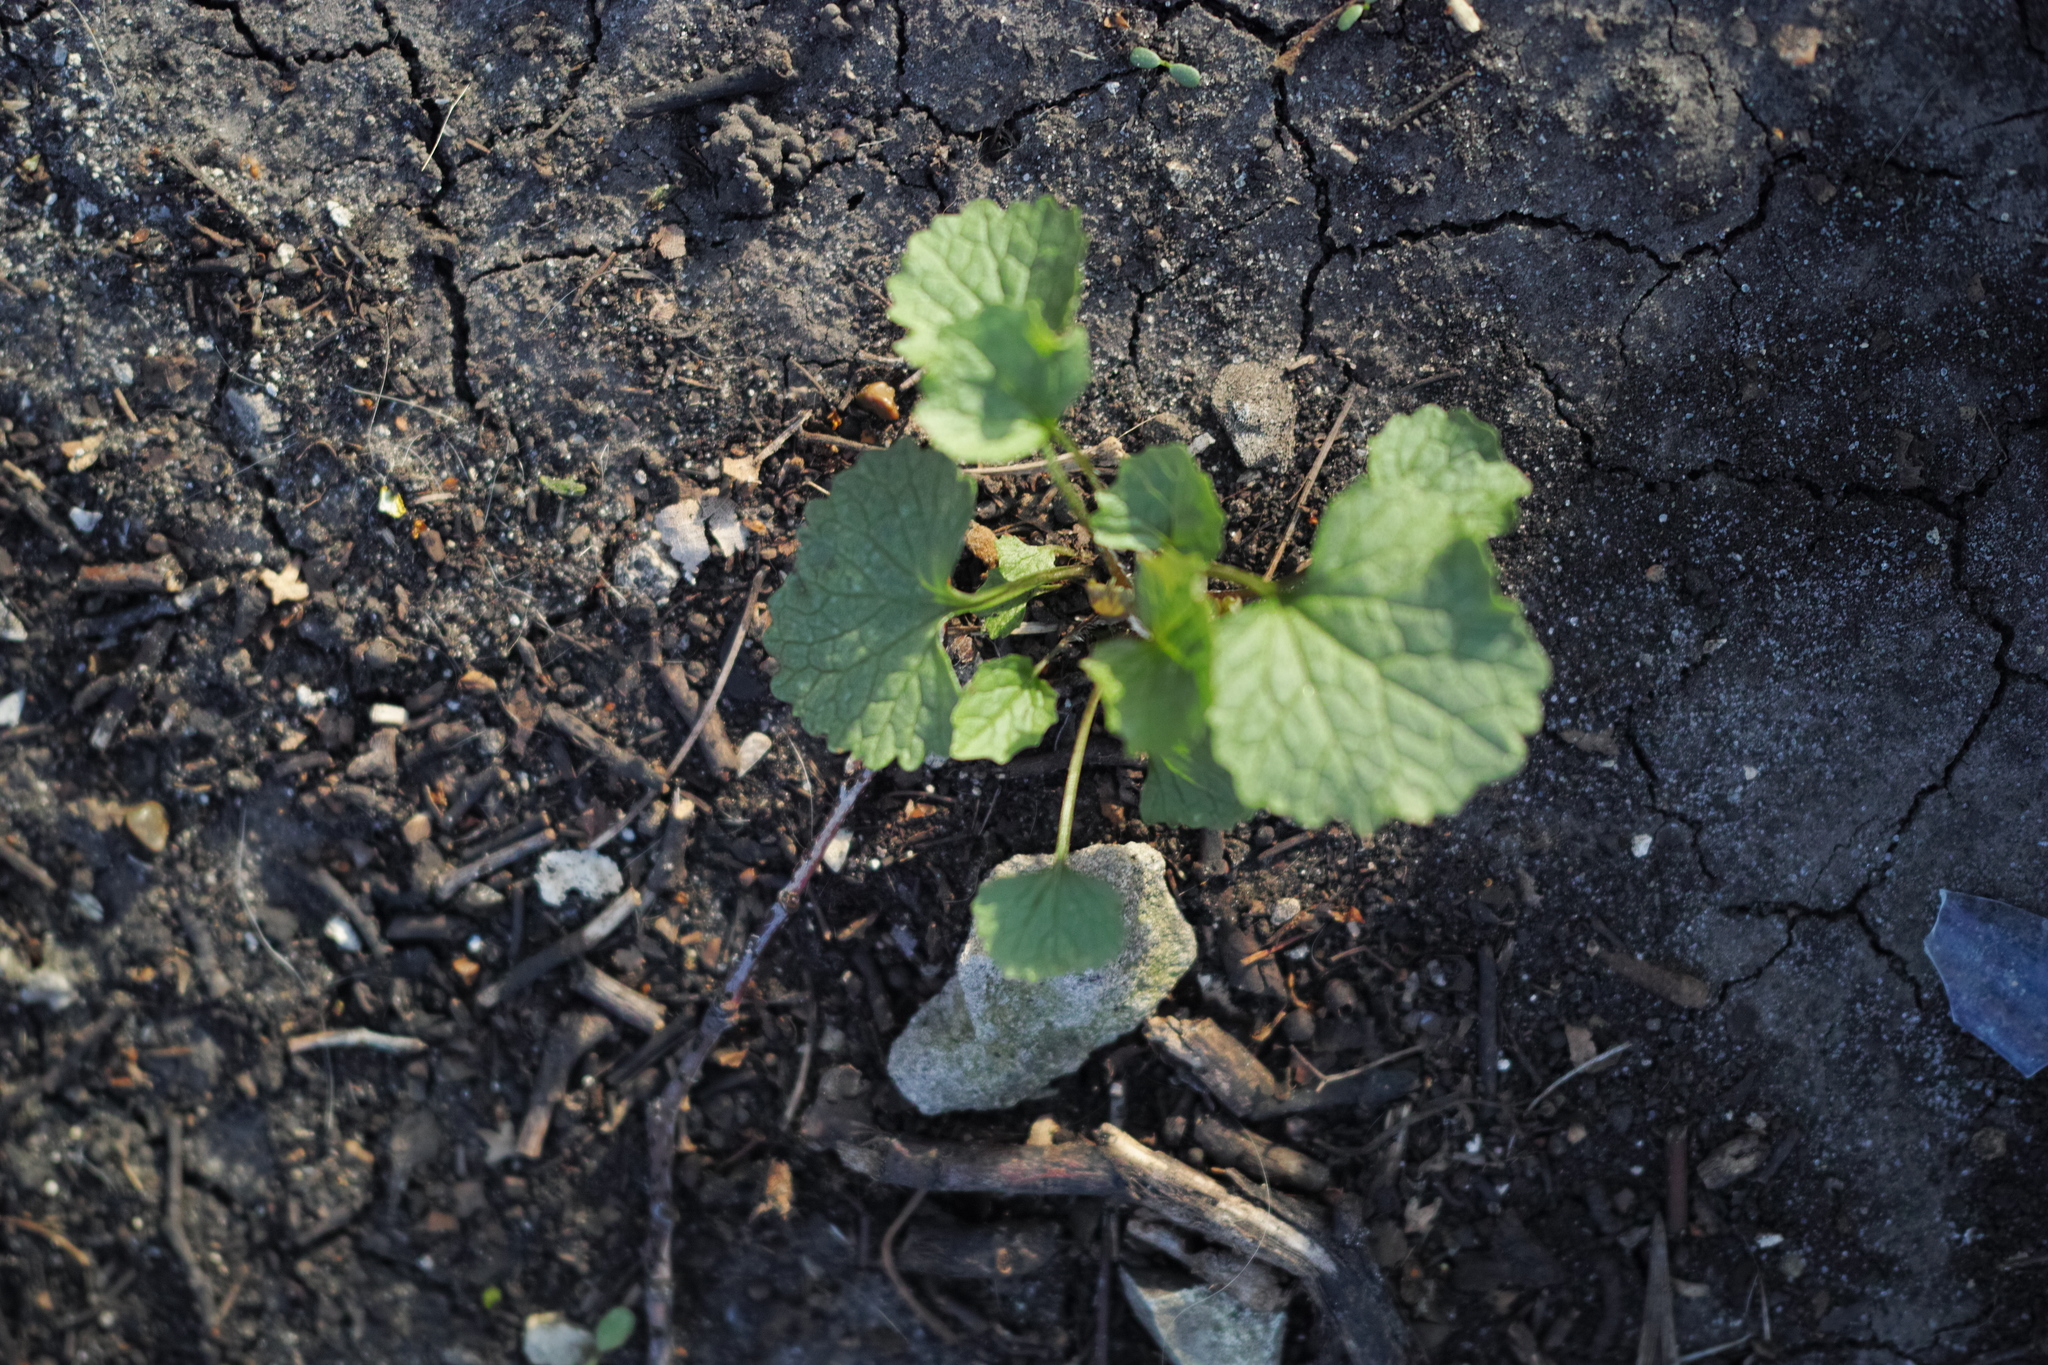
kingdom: Plantae
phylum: Tracheophyta
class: Magnoliopsida
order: Brassicales
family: Brassicaceae
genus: Alliaria
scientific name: Alliaria petiolata
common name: Garlic mustard
